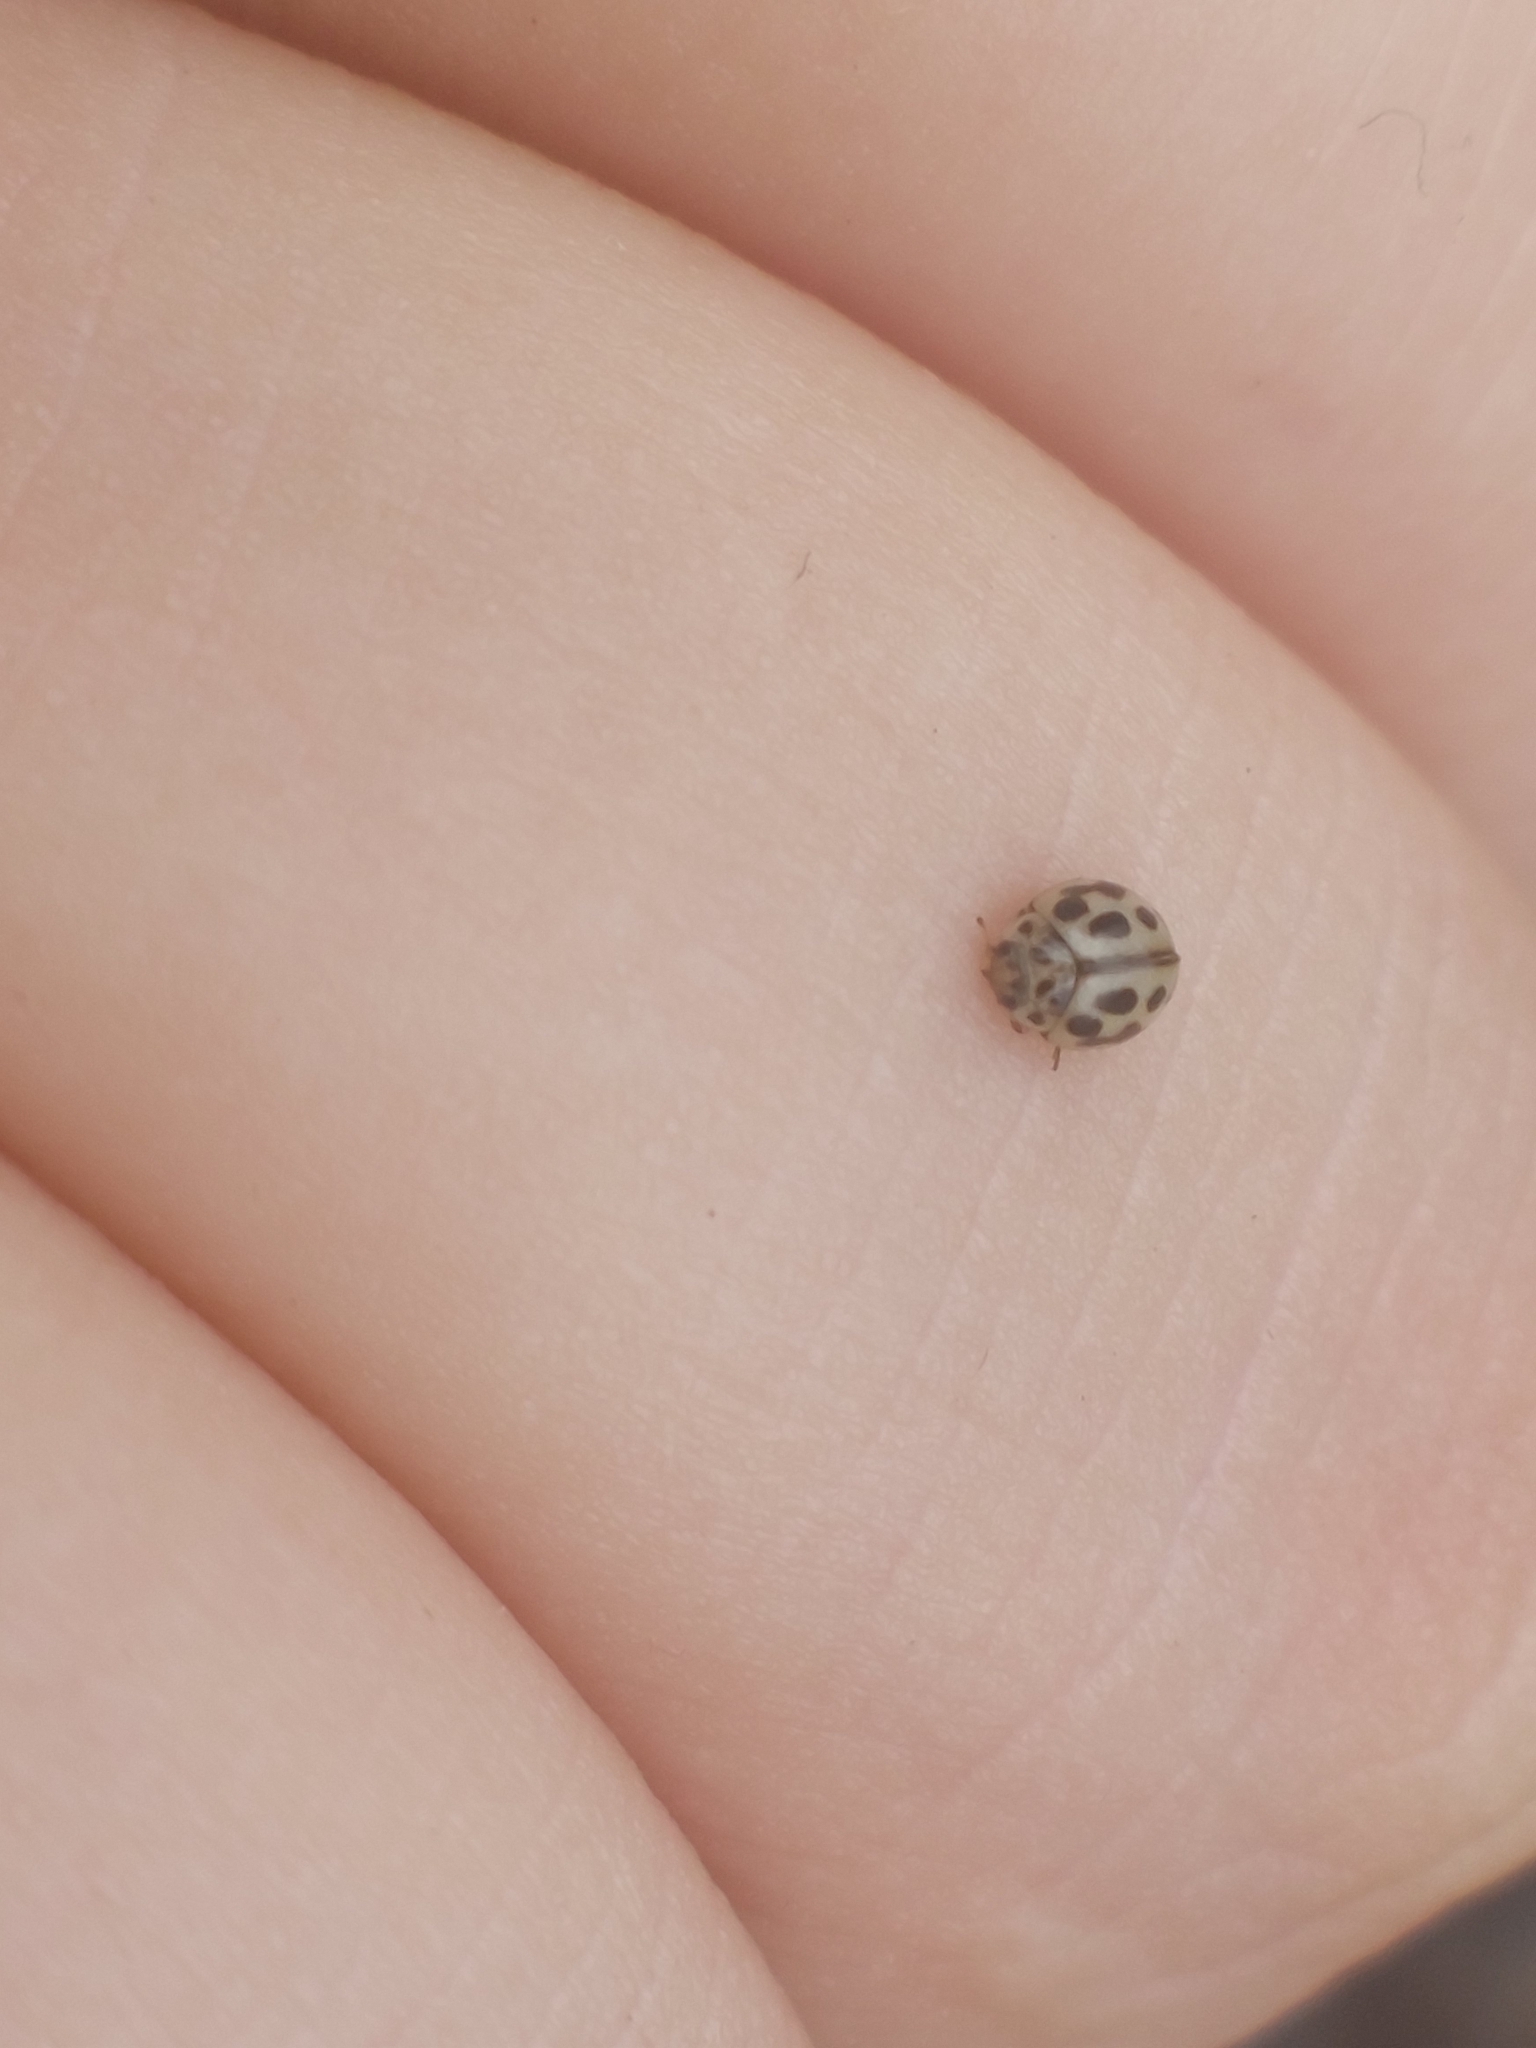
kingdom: Animalia
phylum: Arthropoda
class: Insecta
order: Coleoptera
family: Coccinellidae
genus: Tytthaspis
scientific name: Tytthaspis sedecimpunctata
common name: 16-spot ladybird
